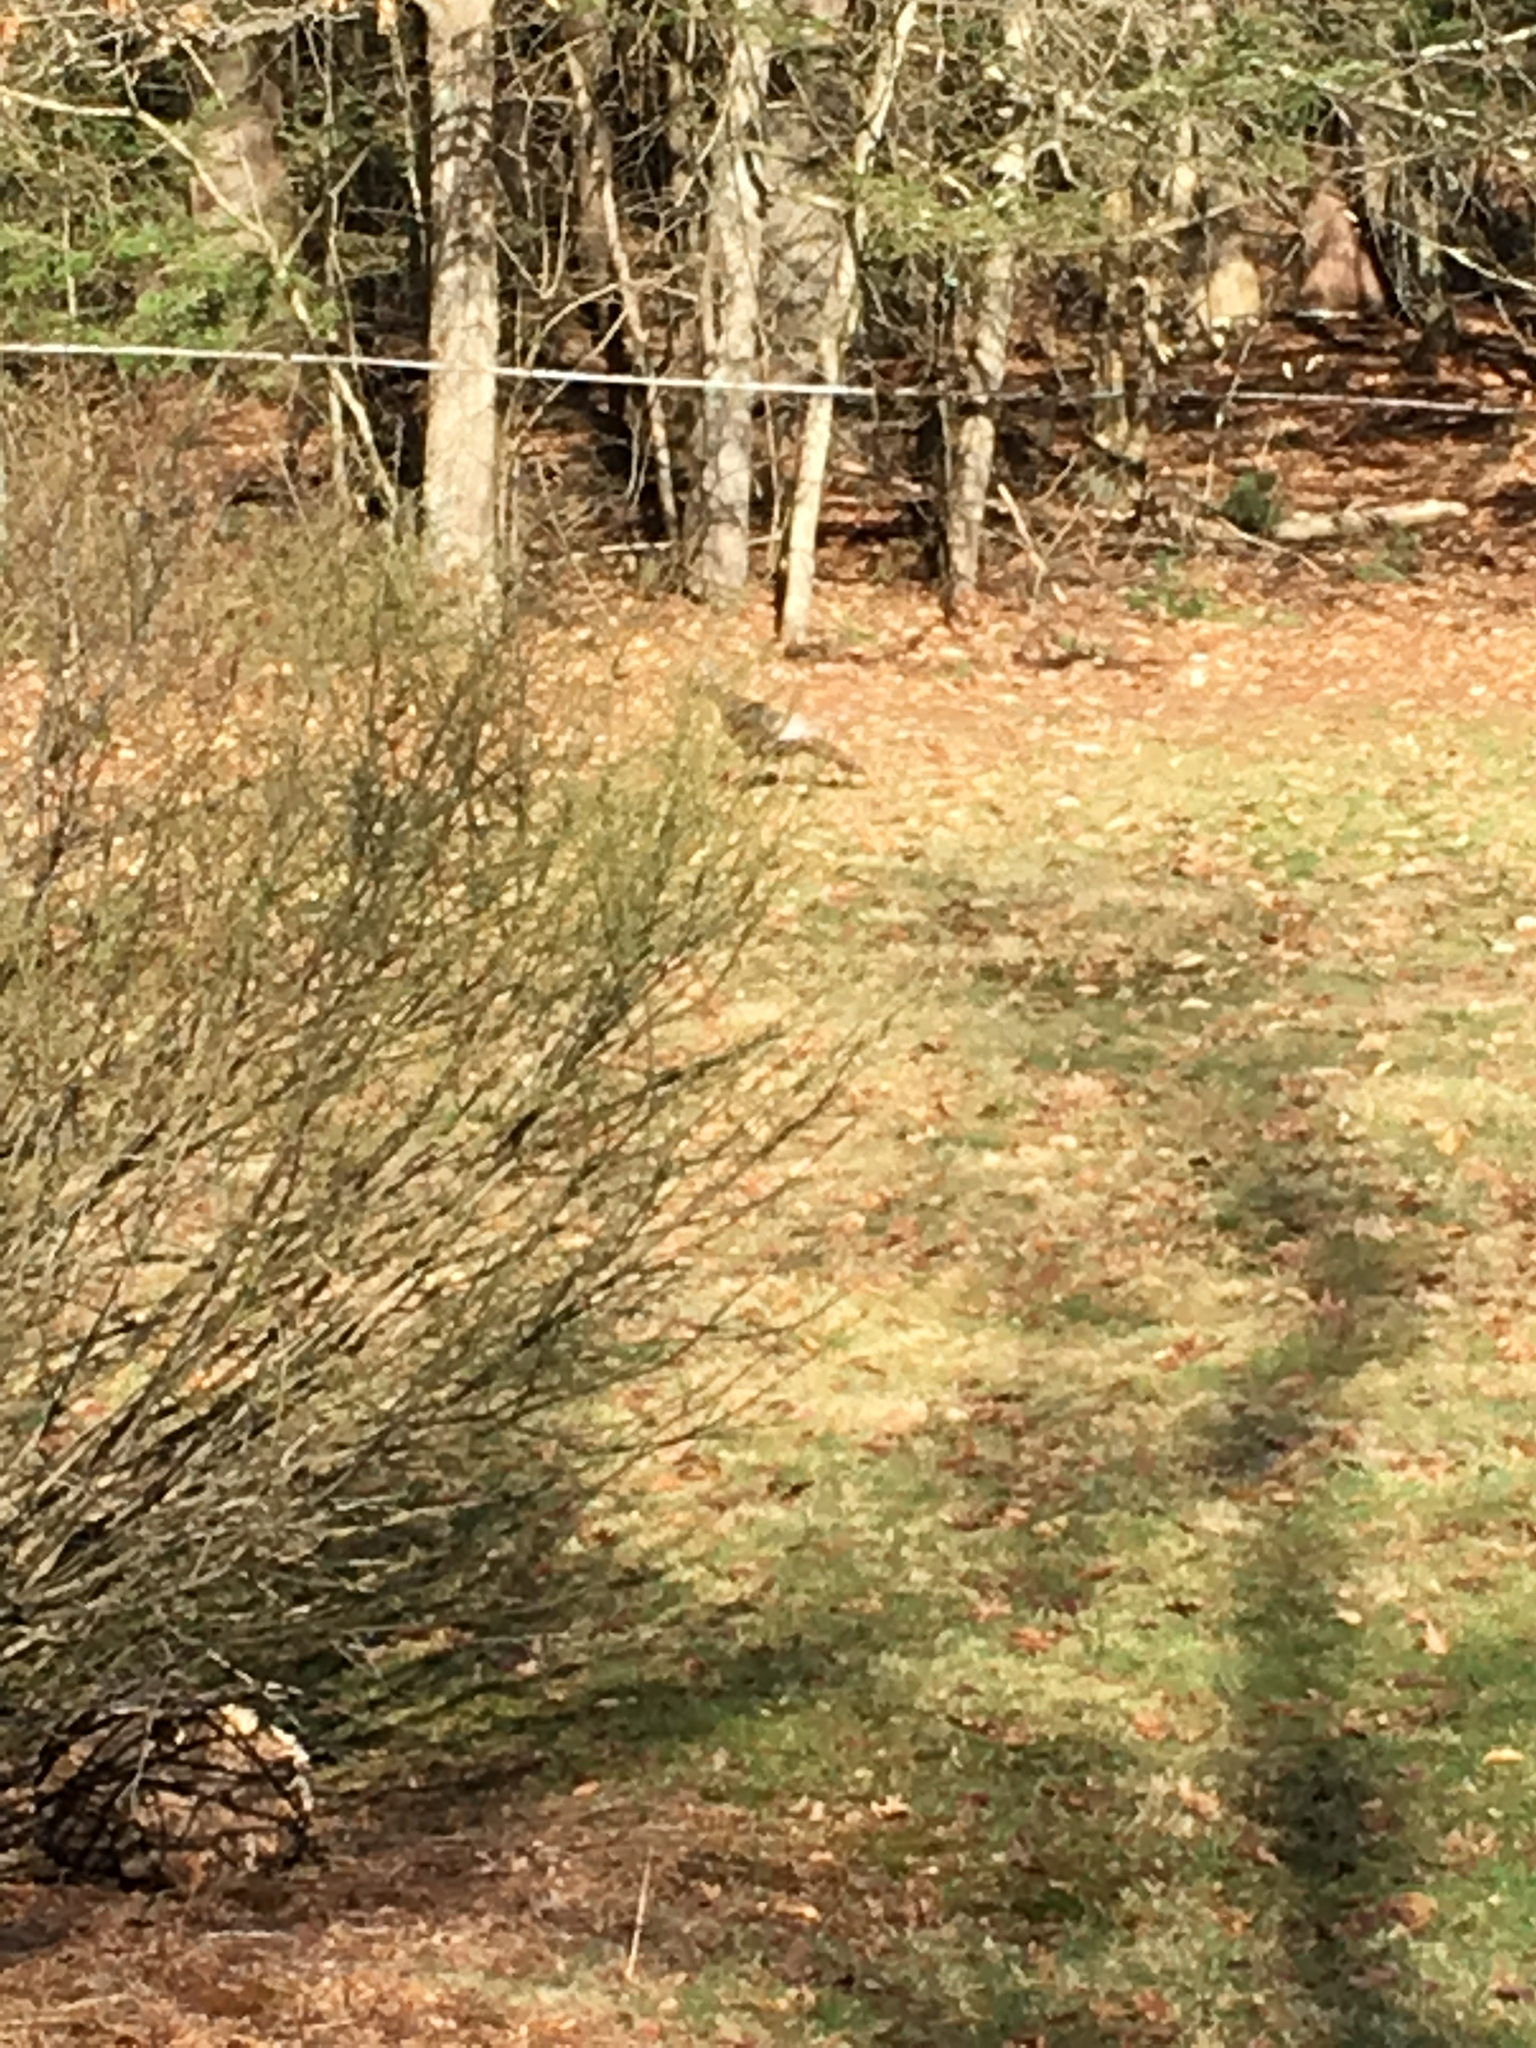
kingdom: Animalia
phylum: Chordata
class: Aves
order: Galliformes
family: Phasianidae
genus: Meleagris
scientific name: Meleagris gallopavo
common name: Wild turkey
